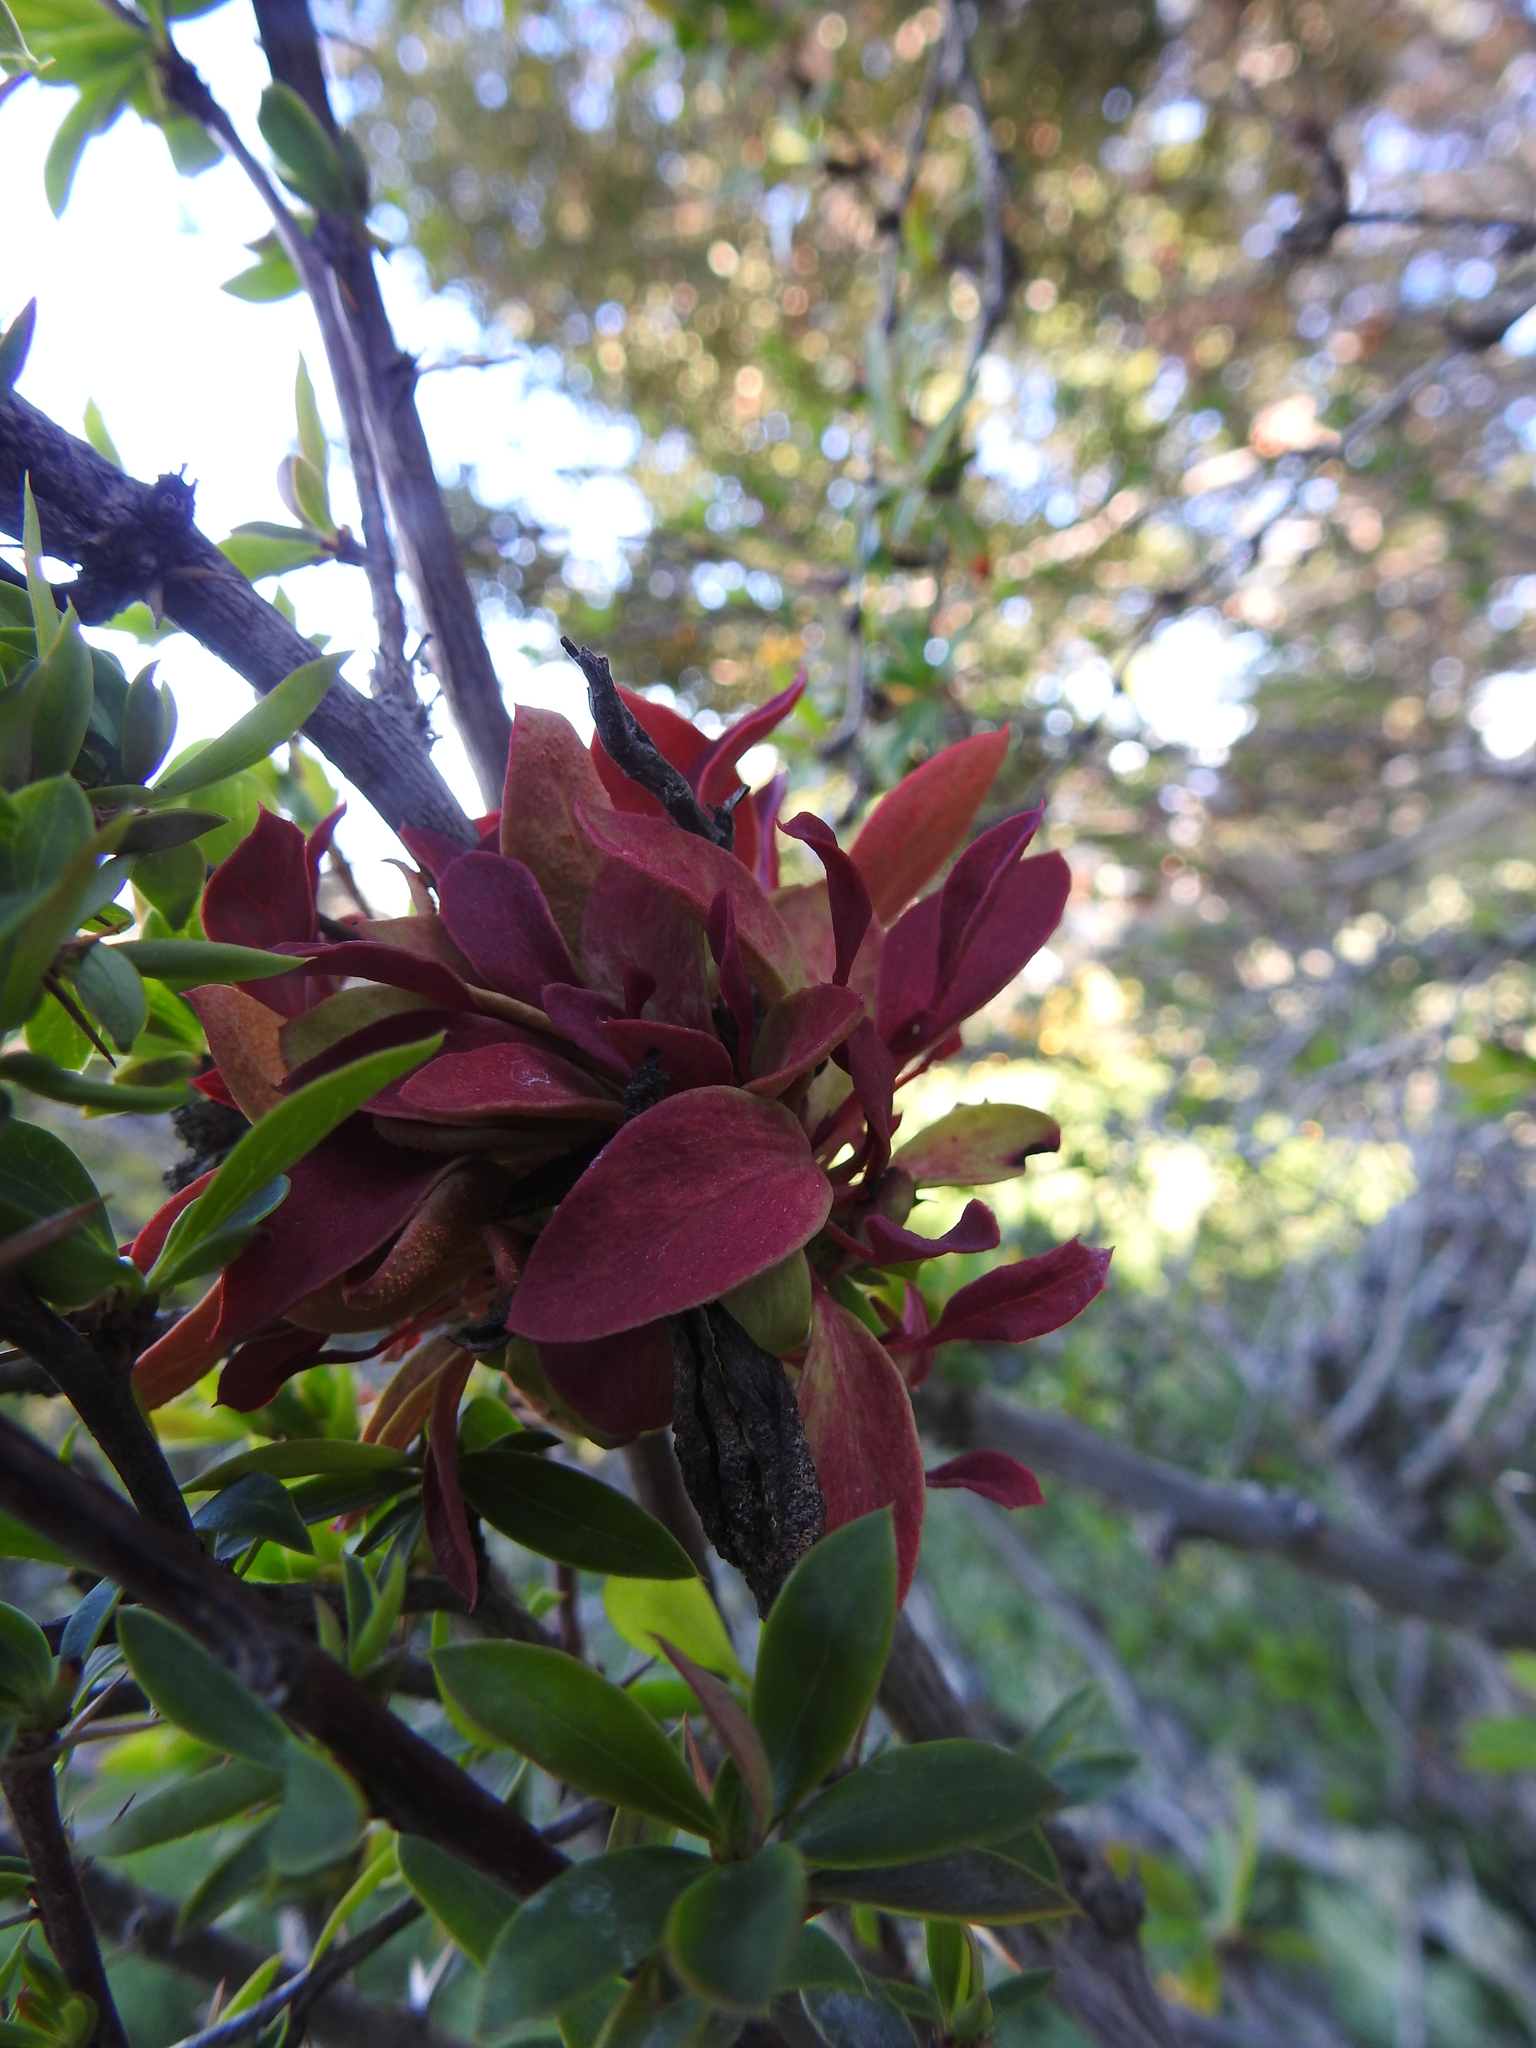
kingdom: Fungi
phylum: Basidiomycota
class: Pucciniomycetes
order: Pucciniales
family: Pucciniaceae
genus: Puccinia
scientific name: Puccinia magellanica
